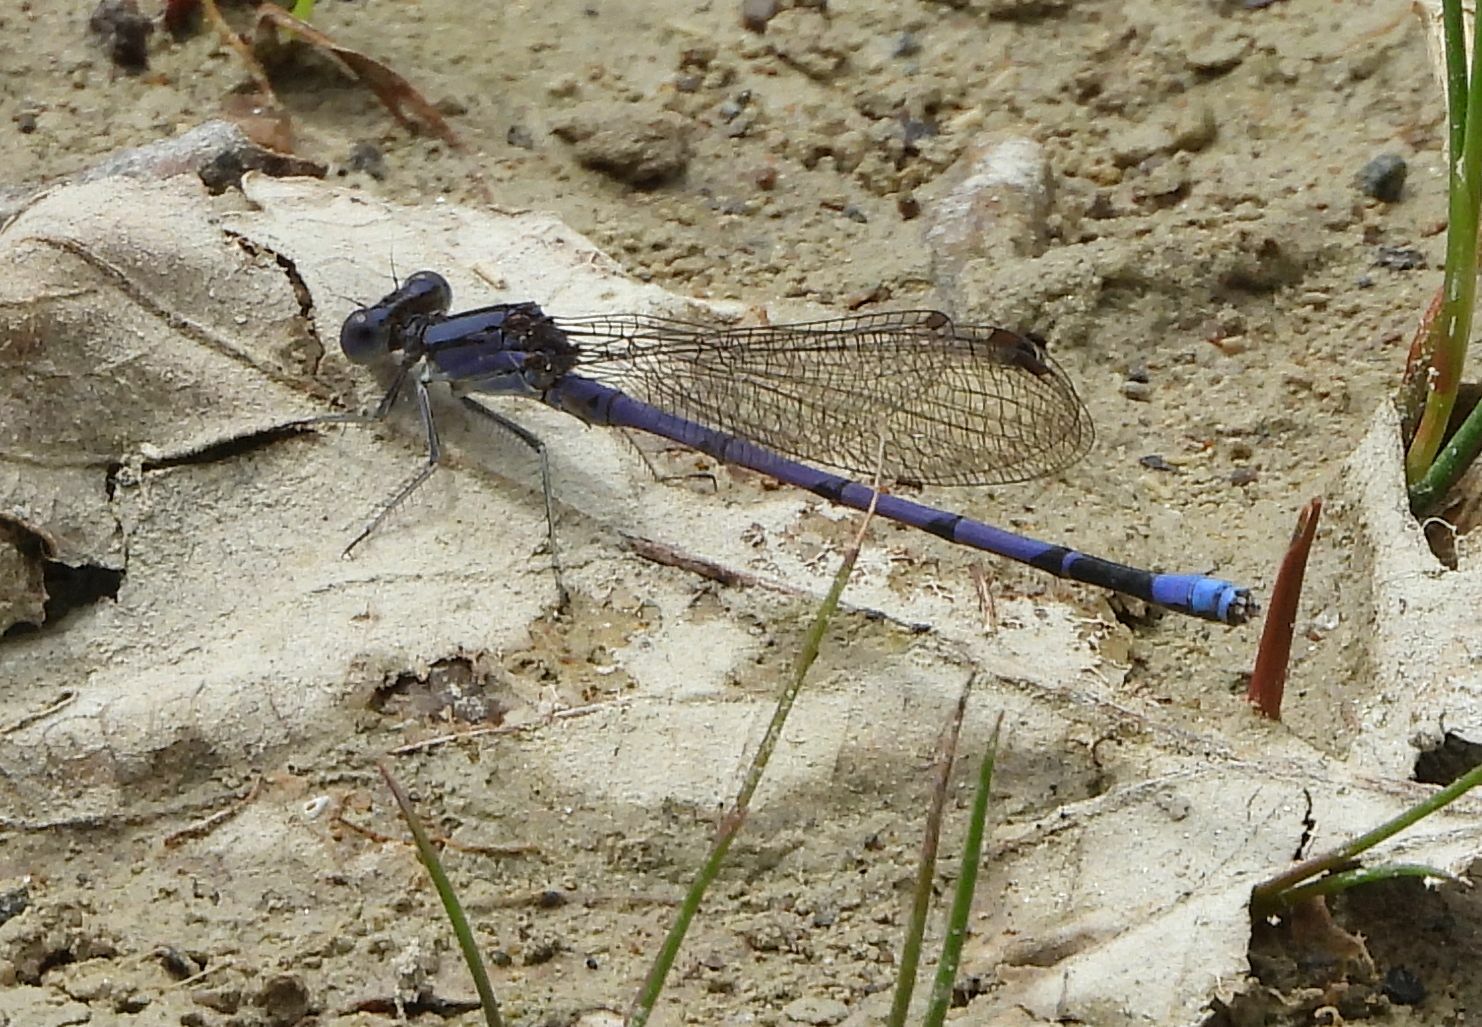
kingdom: Animalia
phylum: Arthropoda
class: Insecta
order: Odonata
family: Coenagrionidae
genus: Argia
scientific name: Argia fumipennis
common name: Variable dancer
